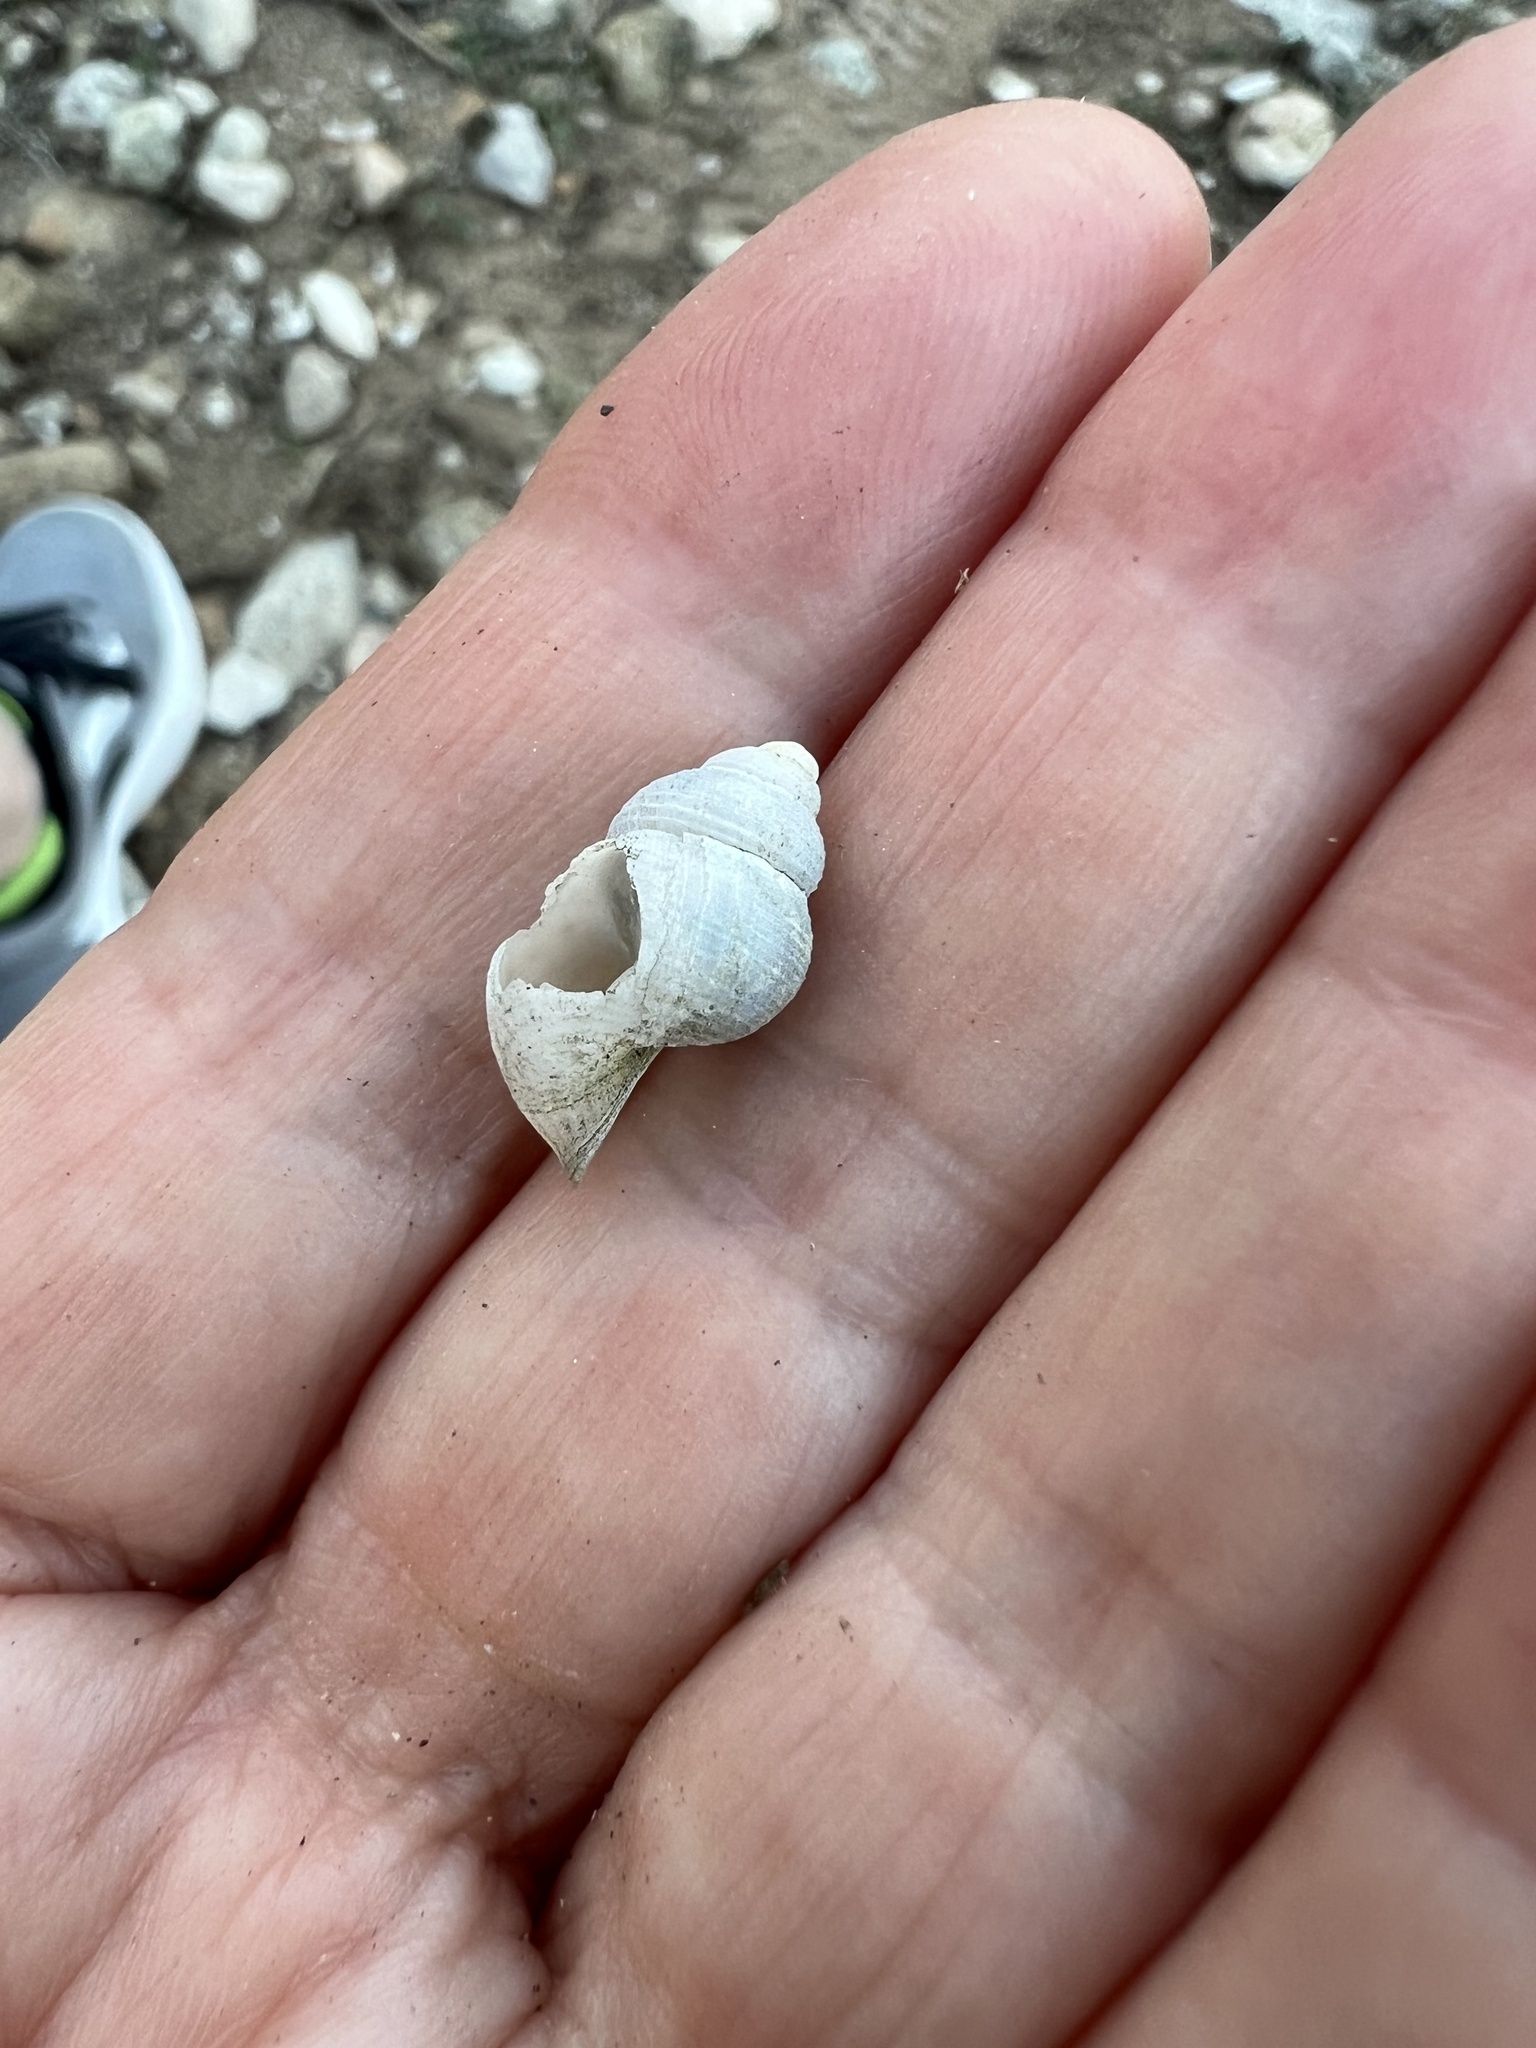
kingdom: Animalia
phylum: Mollusca
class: Gastropoda
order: Littorinimorpha
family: Pomatiidae
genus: Tudorella
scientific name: Tudorella multisulcata
